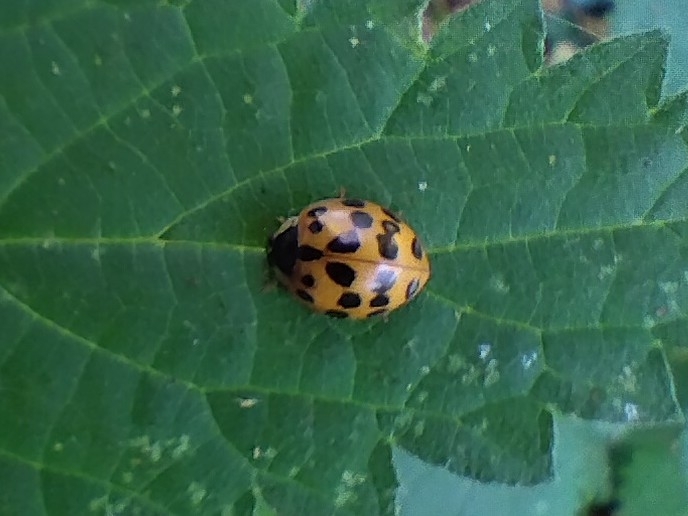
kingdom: Animalia
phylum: Arthropoda
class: Insecta
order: Coleoptera
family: Coccinellidae
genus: Harmonia
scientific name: Harmonia axyridis
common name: Harlequin ladybird
